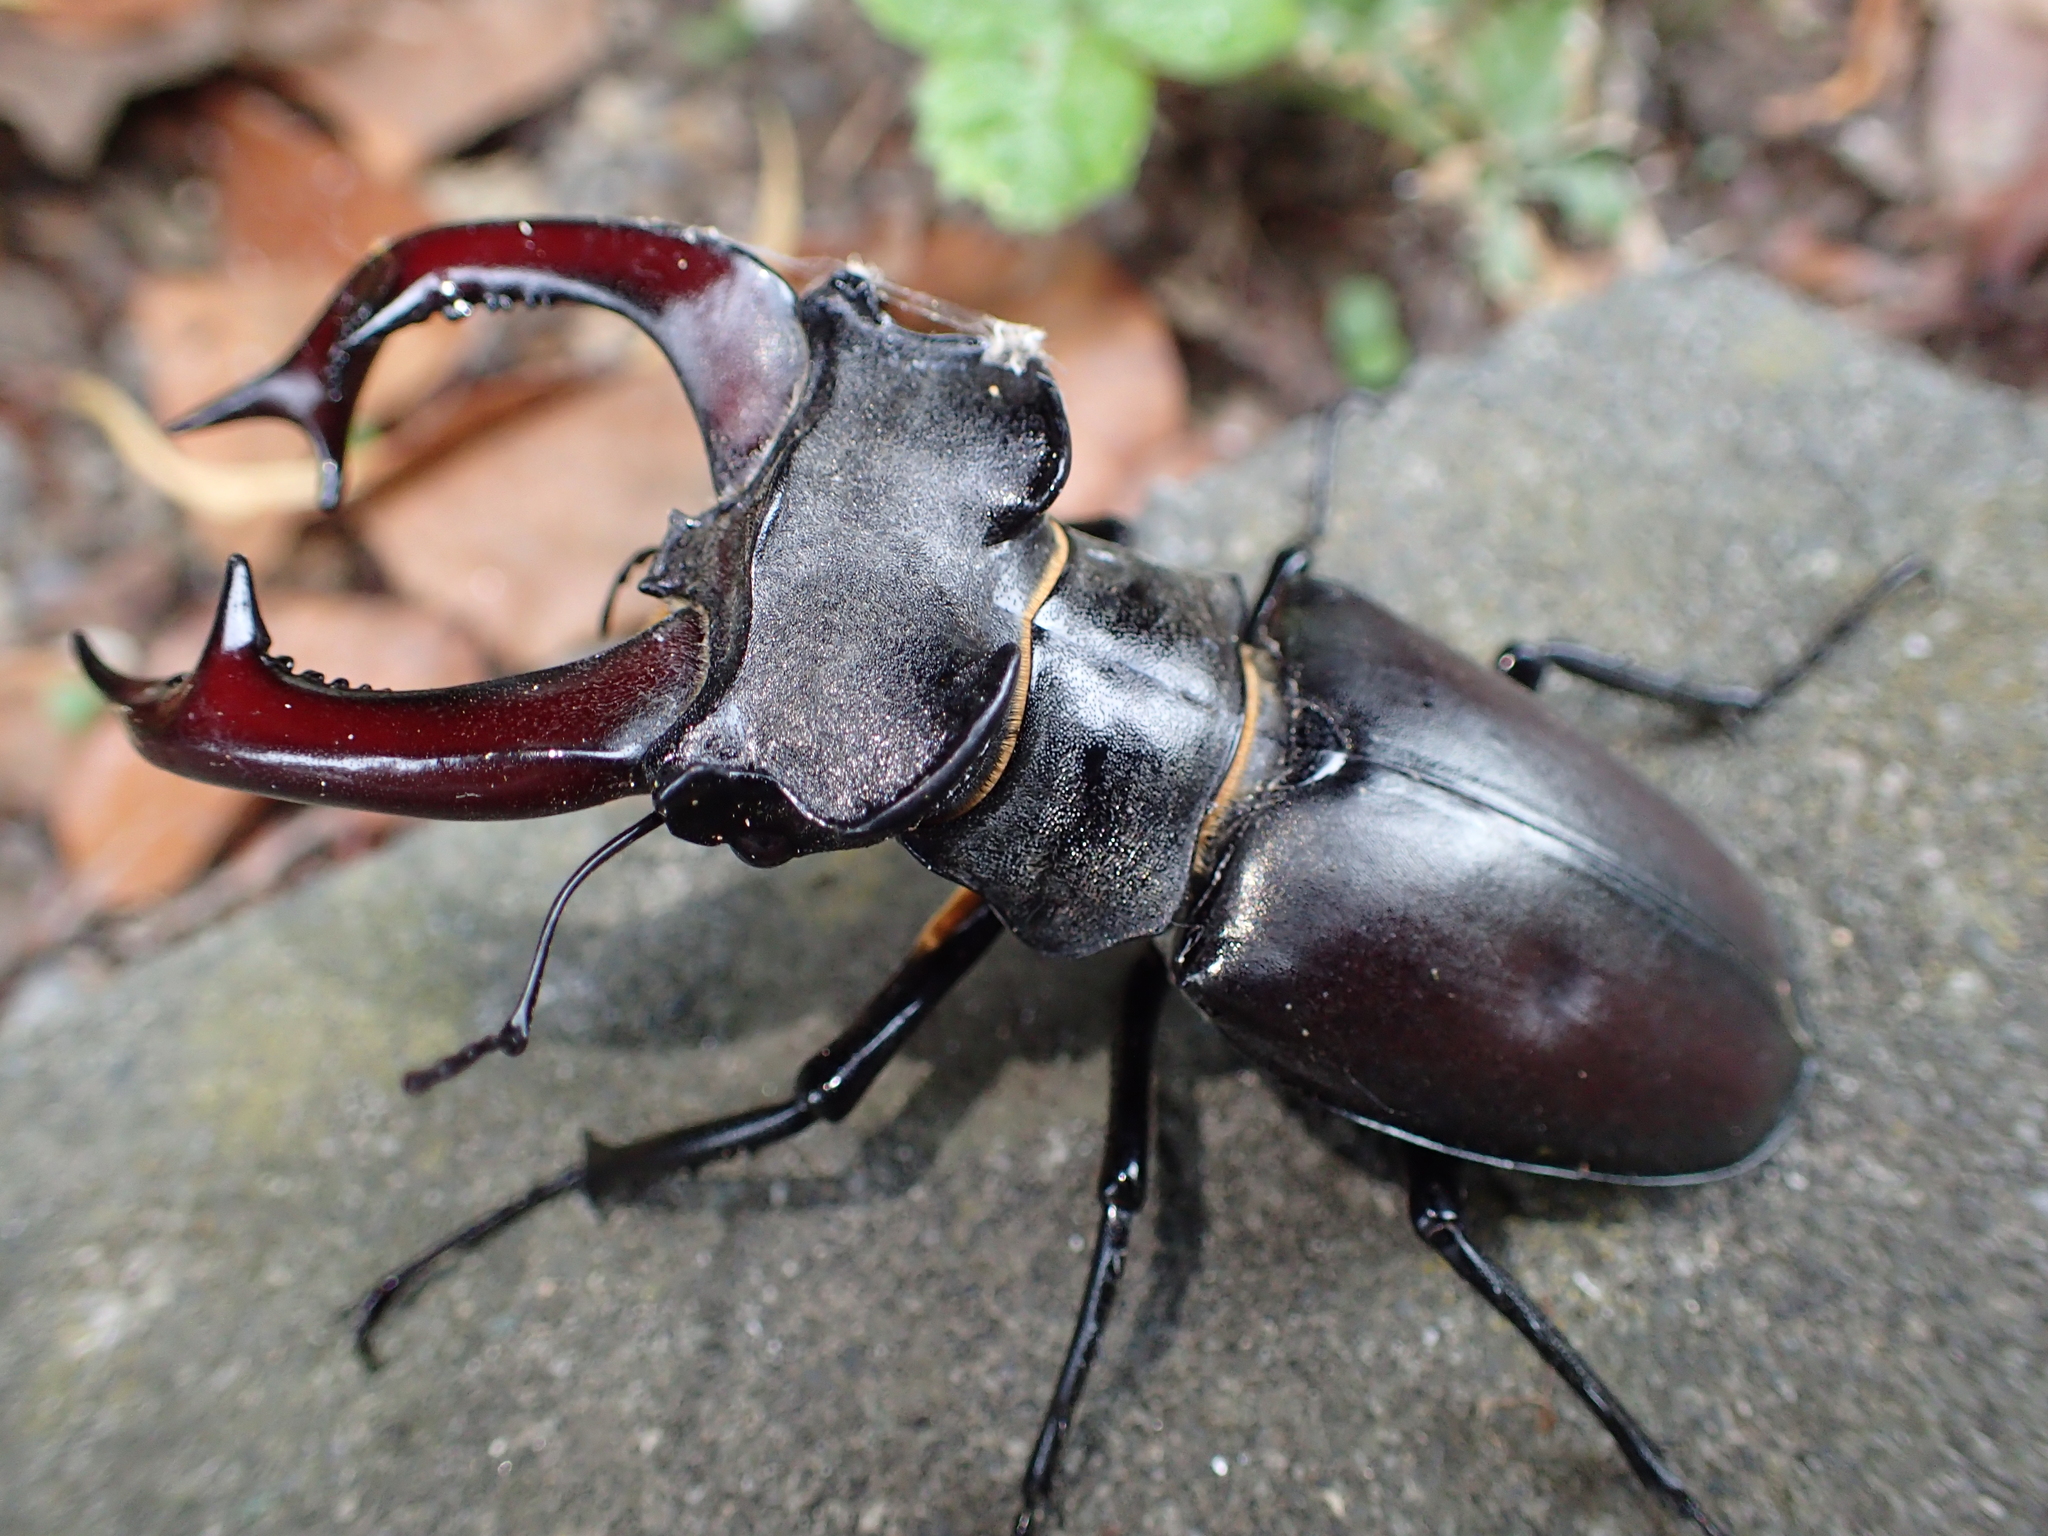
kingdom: Animalia
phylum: Arthropoda
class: Insecta
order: Coleoptera
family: Lucanidae
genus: Lucanus
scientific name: Lucanus cervus
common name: Stag beetle
